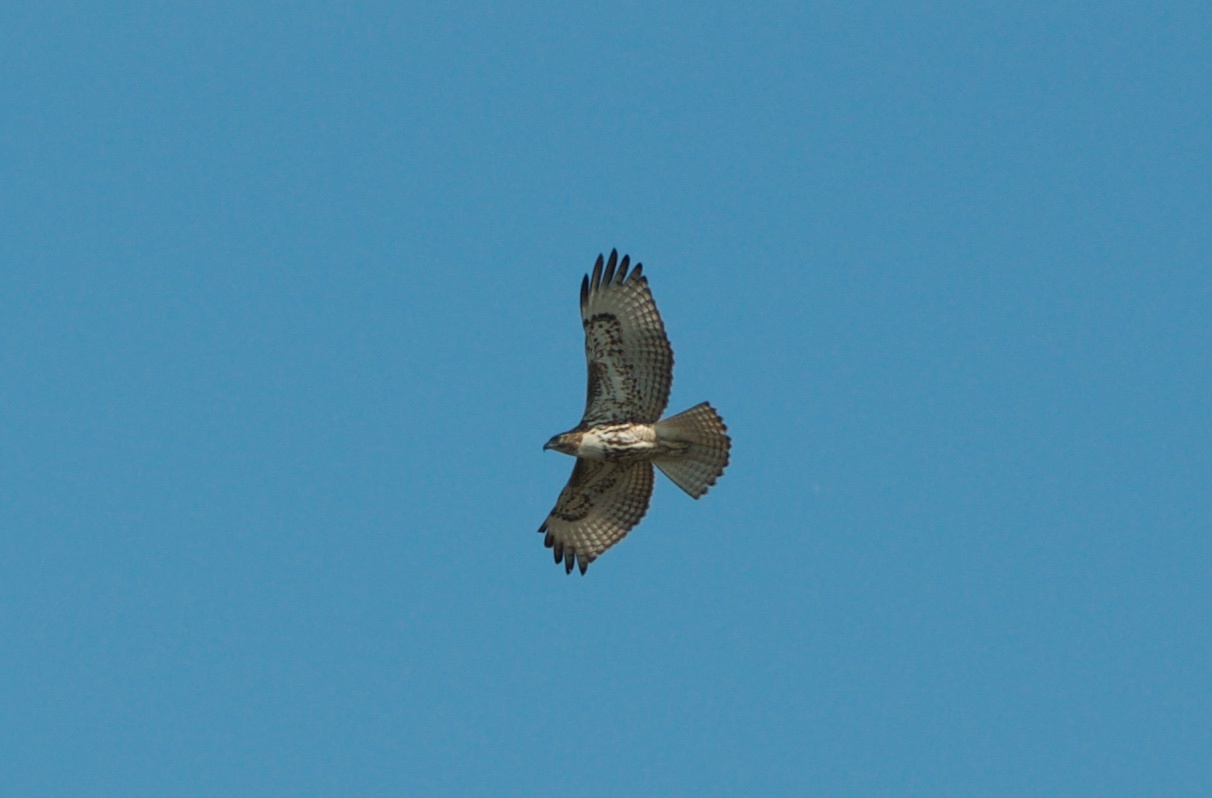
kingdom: Animalia
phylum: Chordata
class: Aves
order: Accipitriformes
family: Accipitridae
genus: Buteo
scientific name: Buteo jamaicensis
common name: Red-tailed hawk
